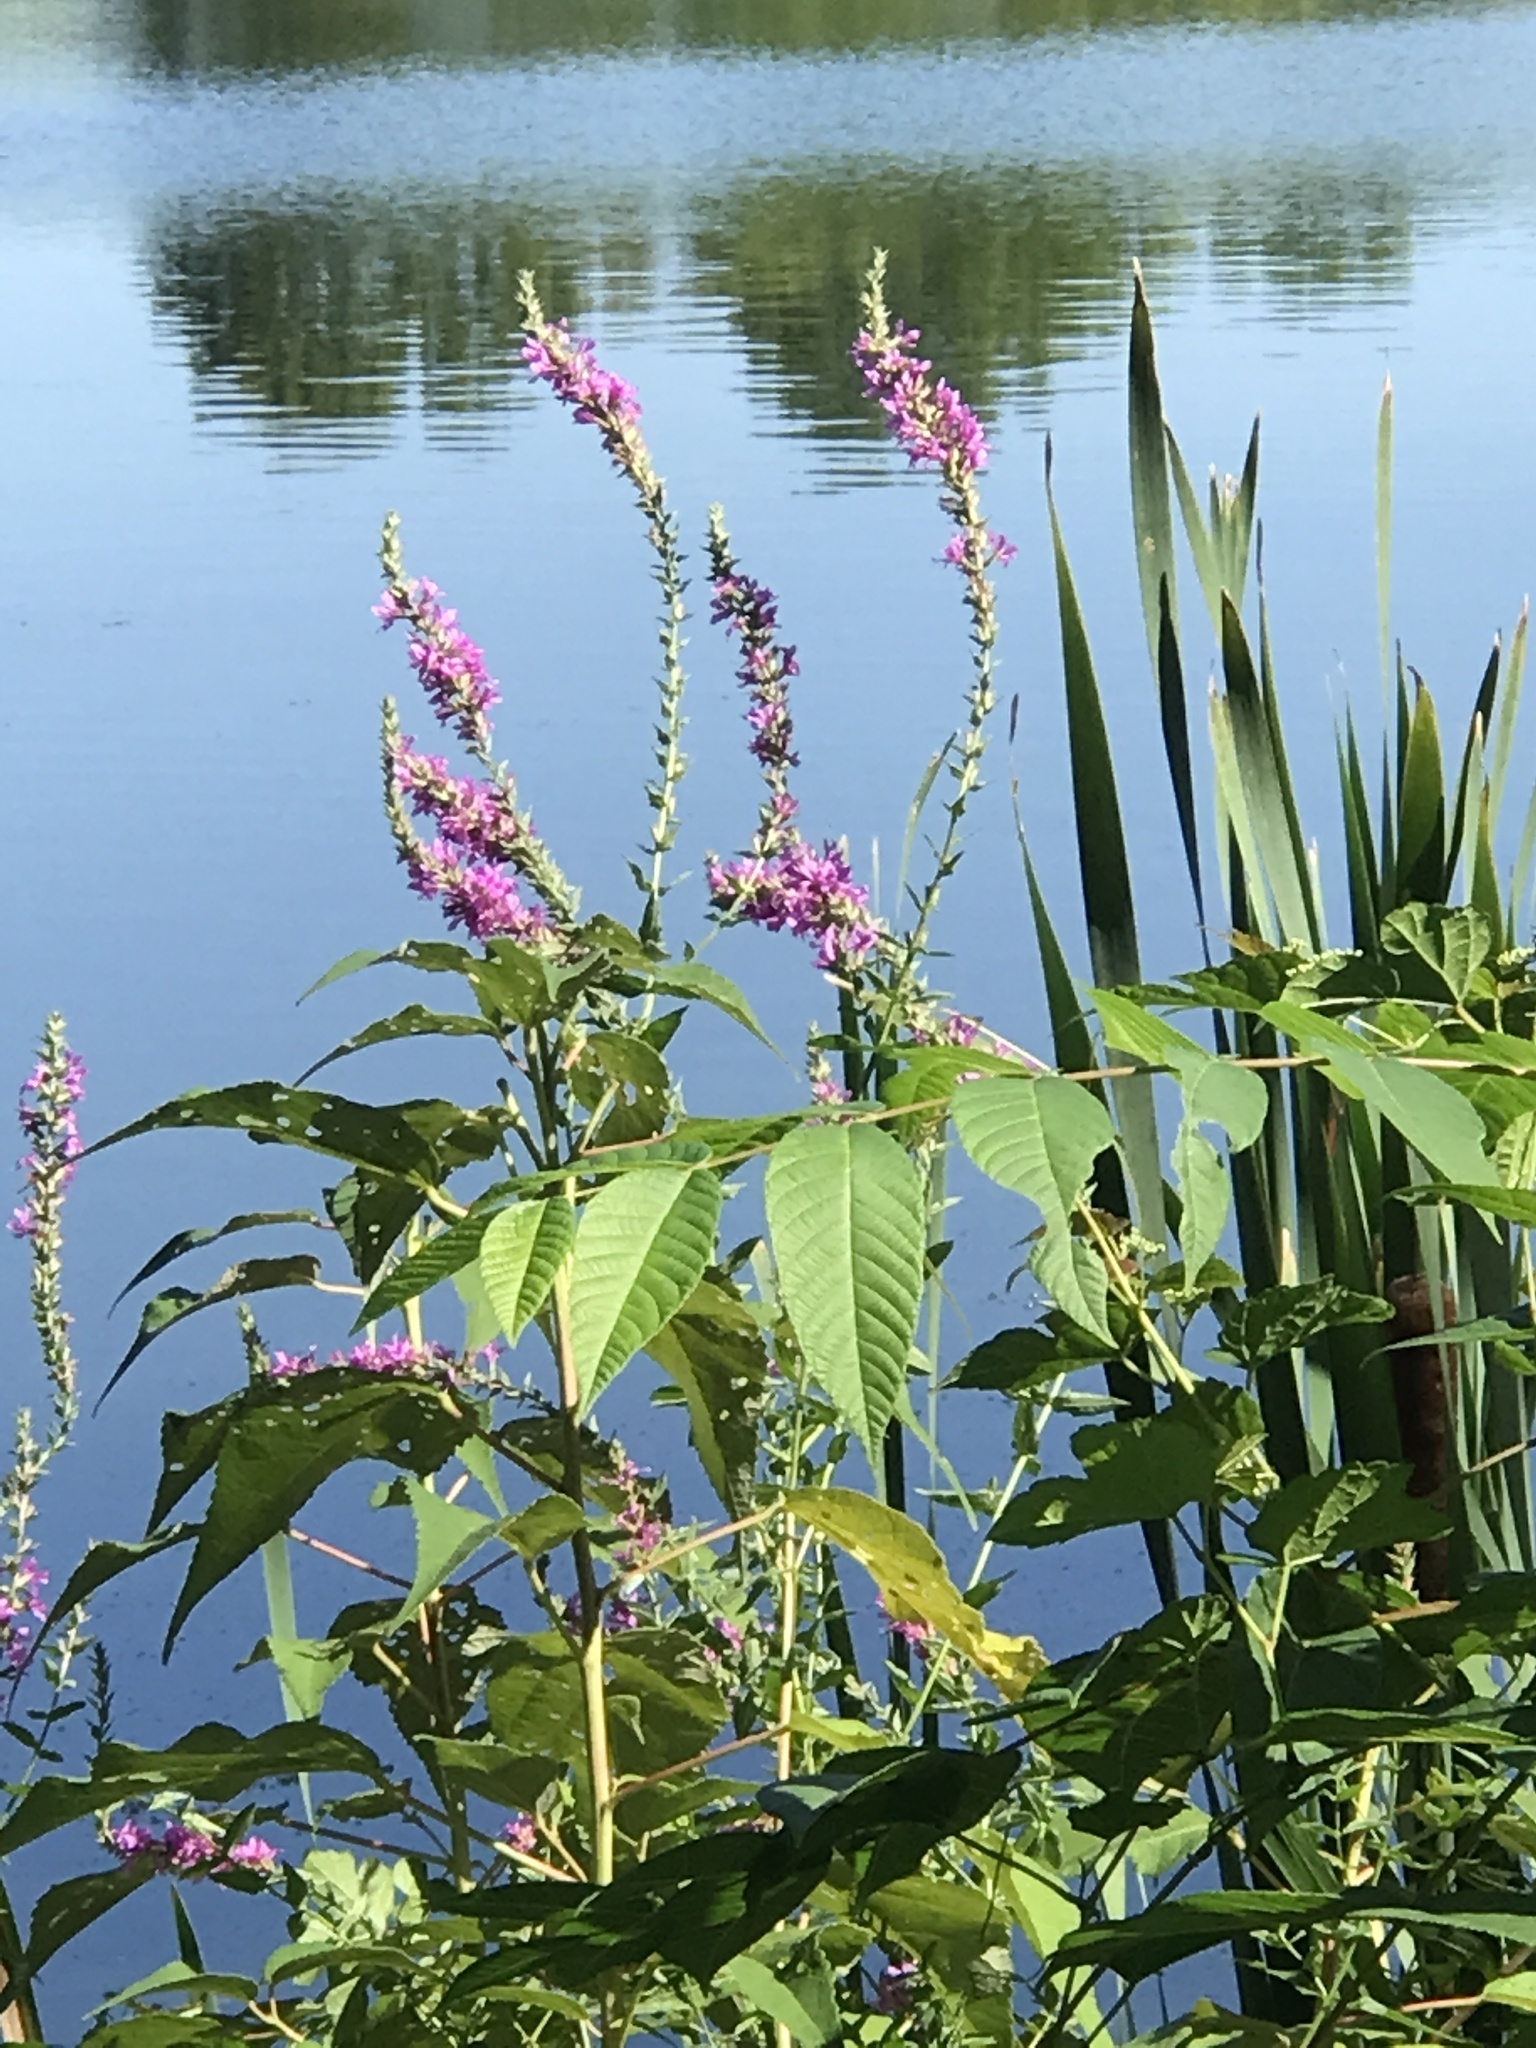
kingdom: Plantae
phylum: Tracheophyta
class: Magnoliopsida
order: Myrtales
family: Lythraceae
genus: Lythrum
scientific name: Lythrum salicaria
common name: Purple loosestrife
